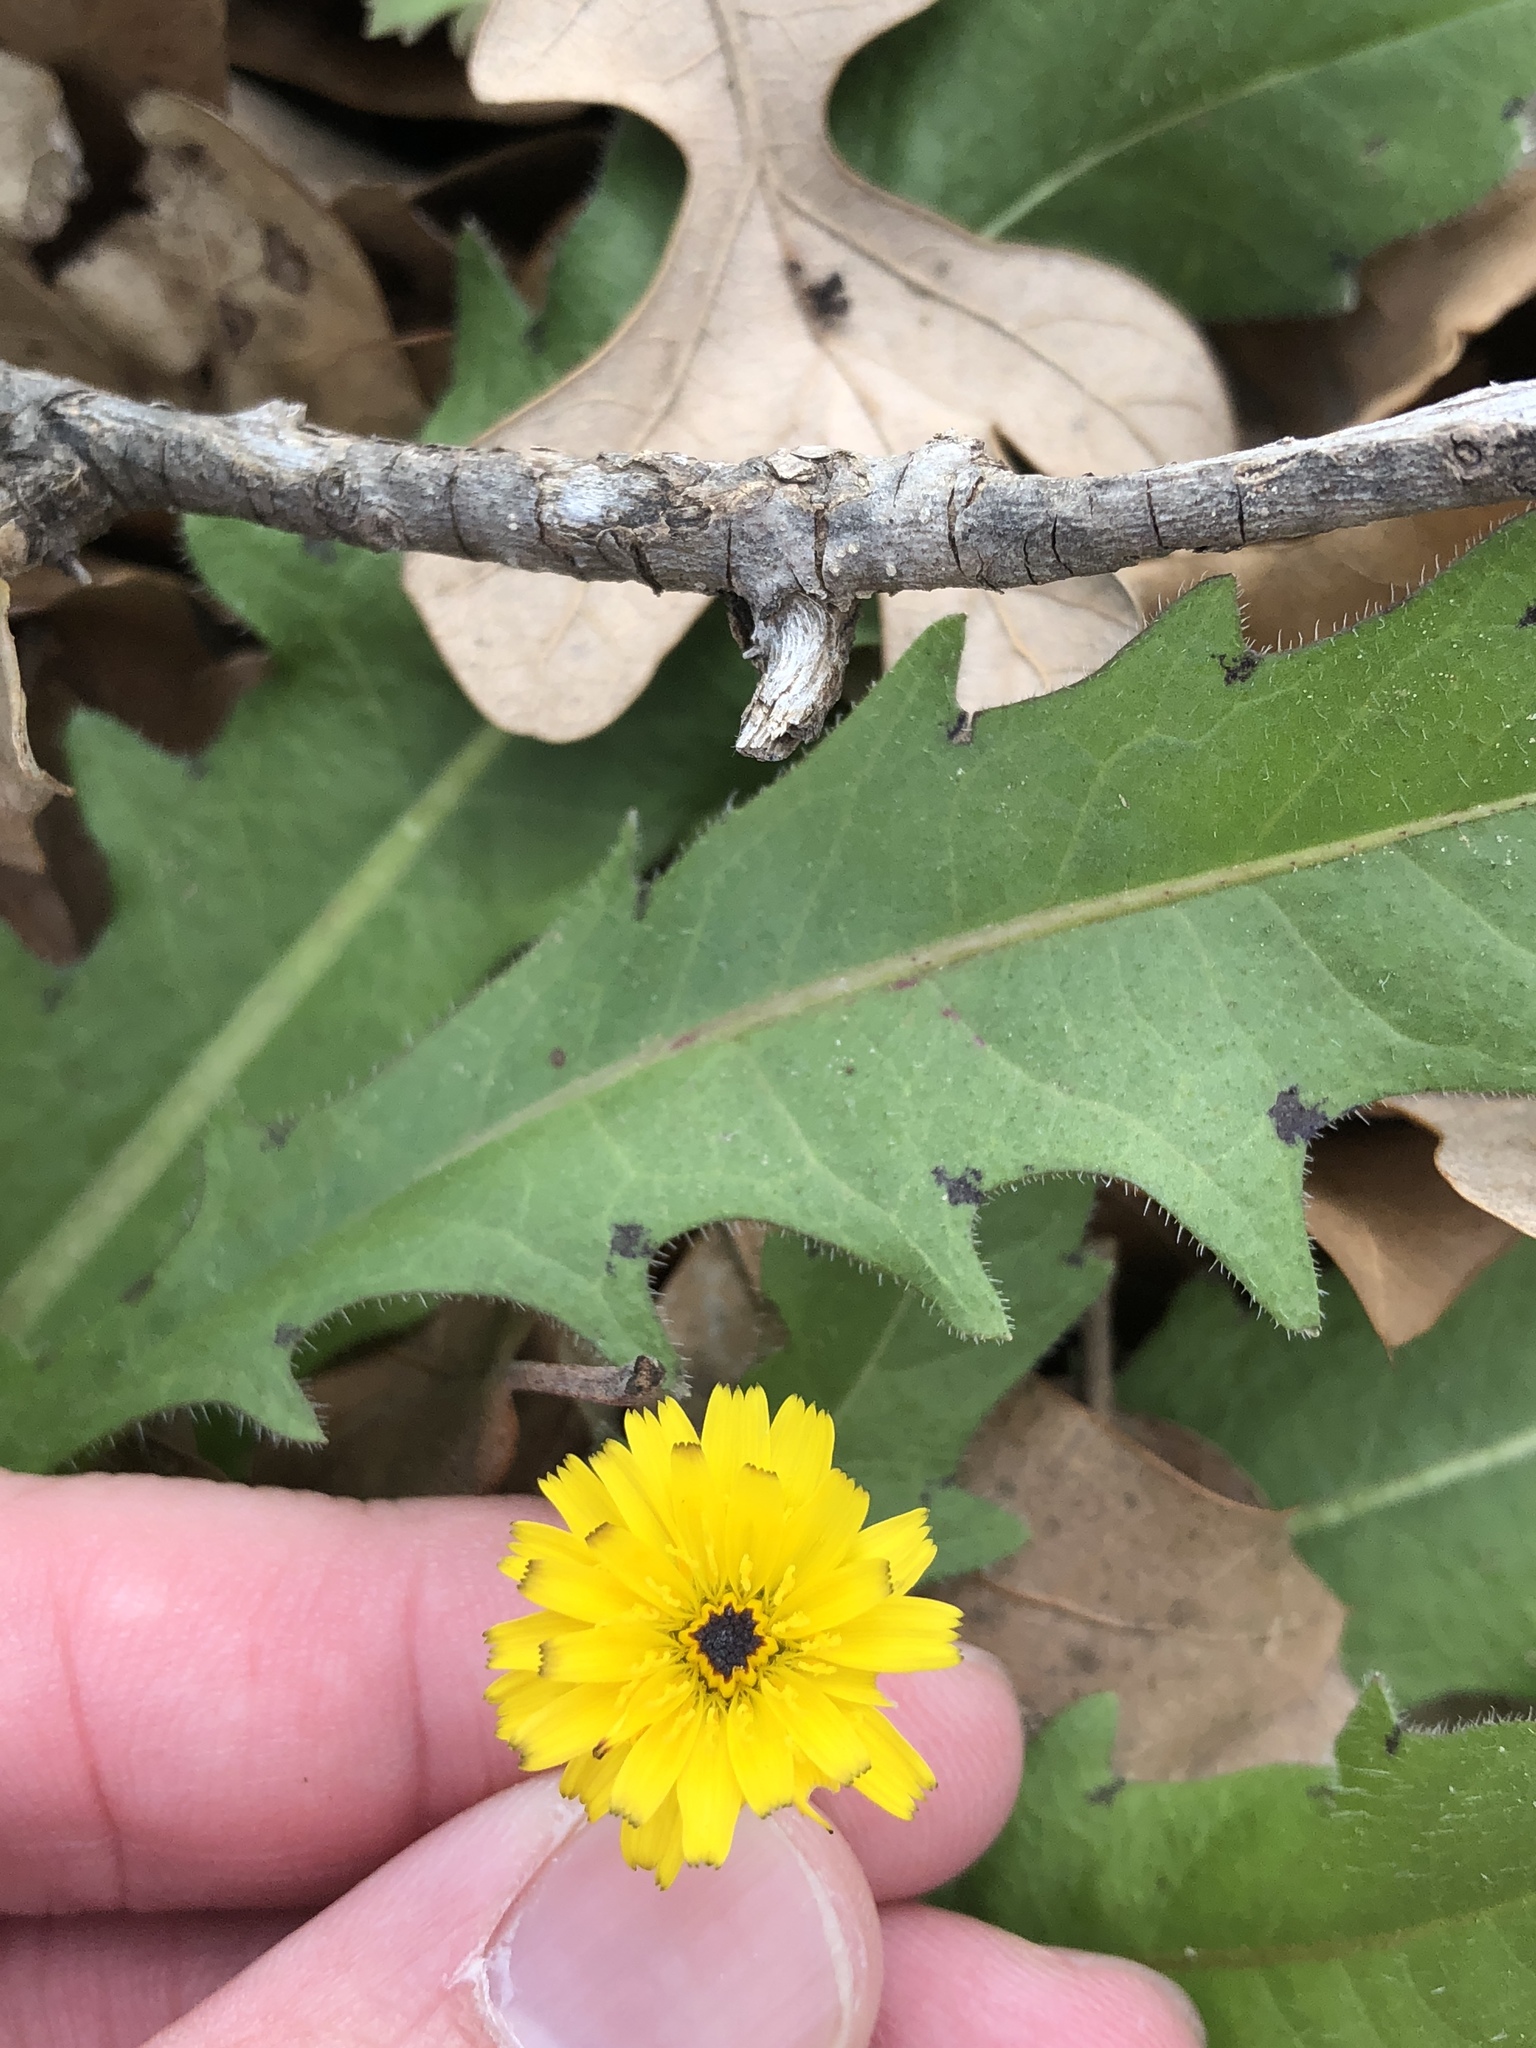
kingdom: Plantae
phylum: Tracheophyta
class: Magnoliopsida
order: Asterales
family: Asteraceae
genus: Hedypnois
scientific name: Hedypnois rhagadioloides
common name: Cretan weed
